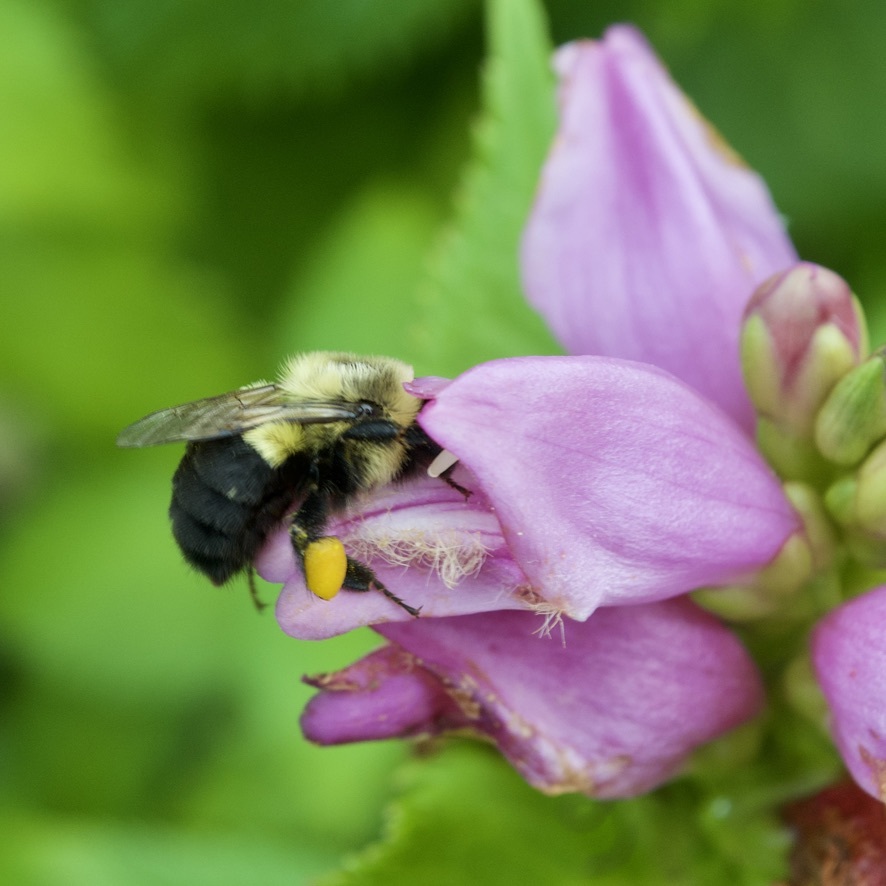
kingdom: Animalia
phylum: Arthropoda
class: Insecta
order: Hymenoptera
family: Apidae
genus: Bombus
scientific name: Bombus impatiens
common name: Common eastern bumble bee
